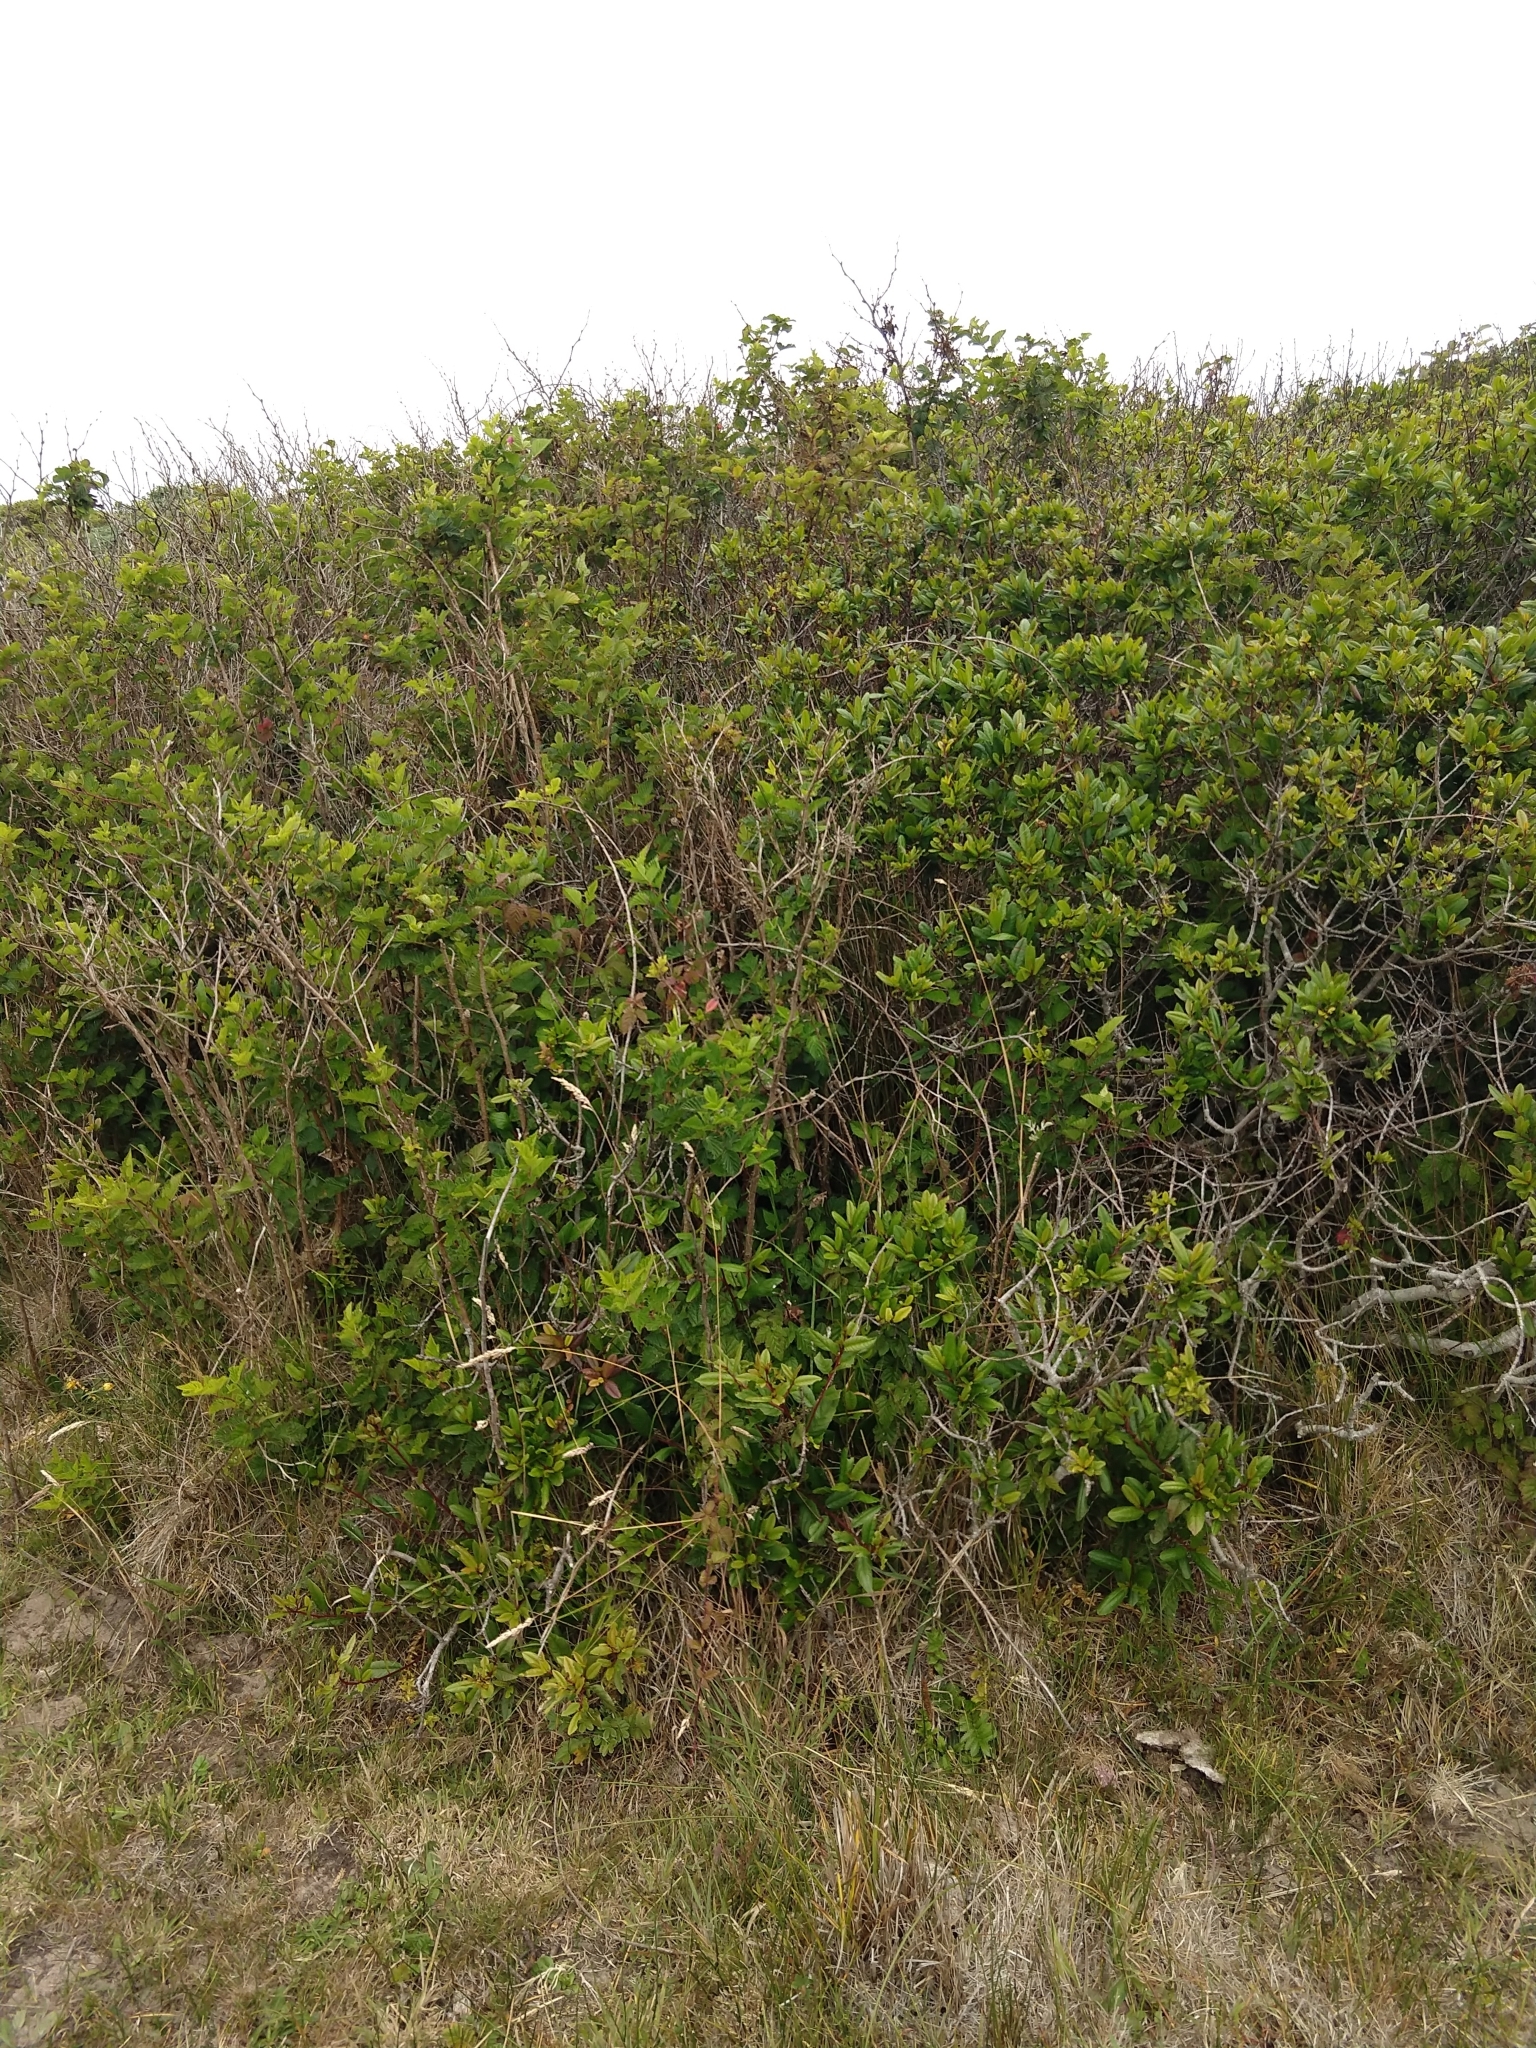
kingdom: Plantae
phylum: Tracheophyta
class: Magnoliopsida
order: Rosales
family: Rosaceae
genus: Rubus
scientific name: Rubus spectabilis
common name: Salmonberry
